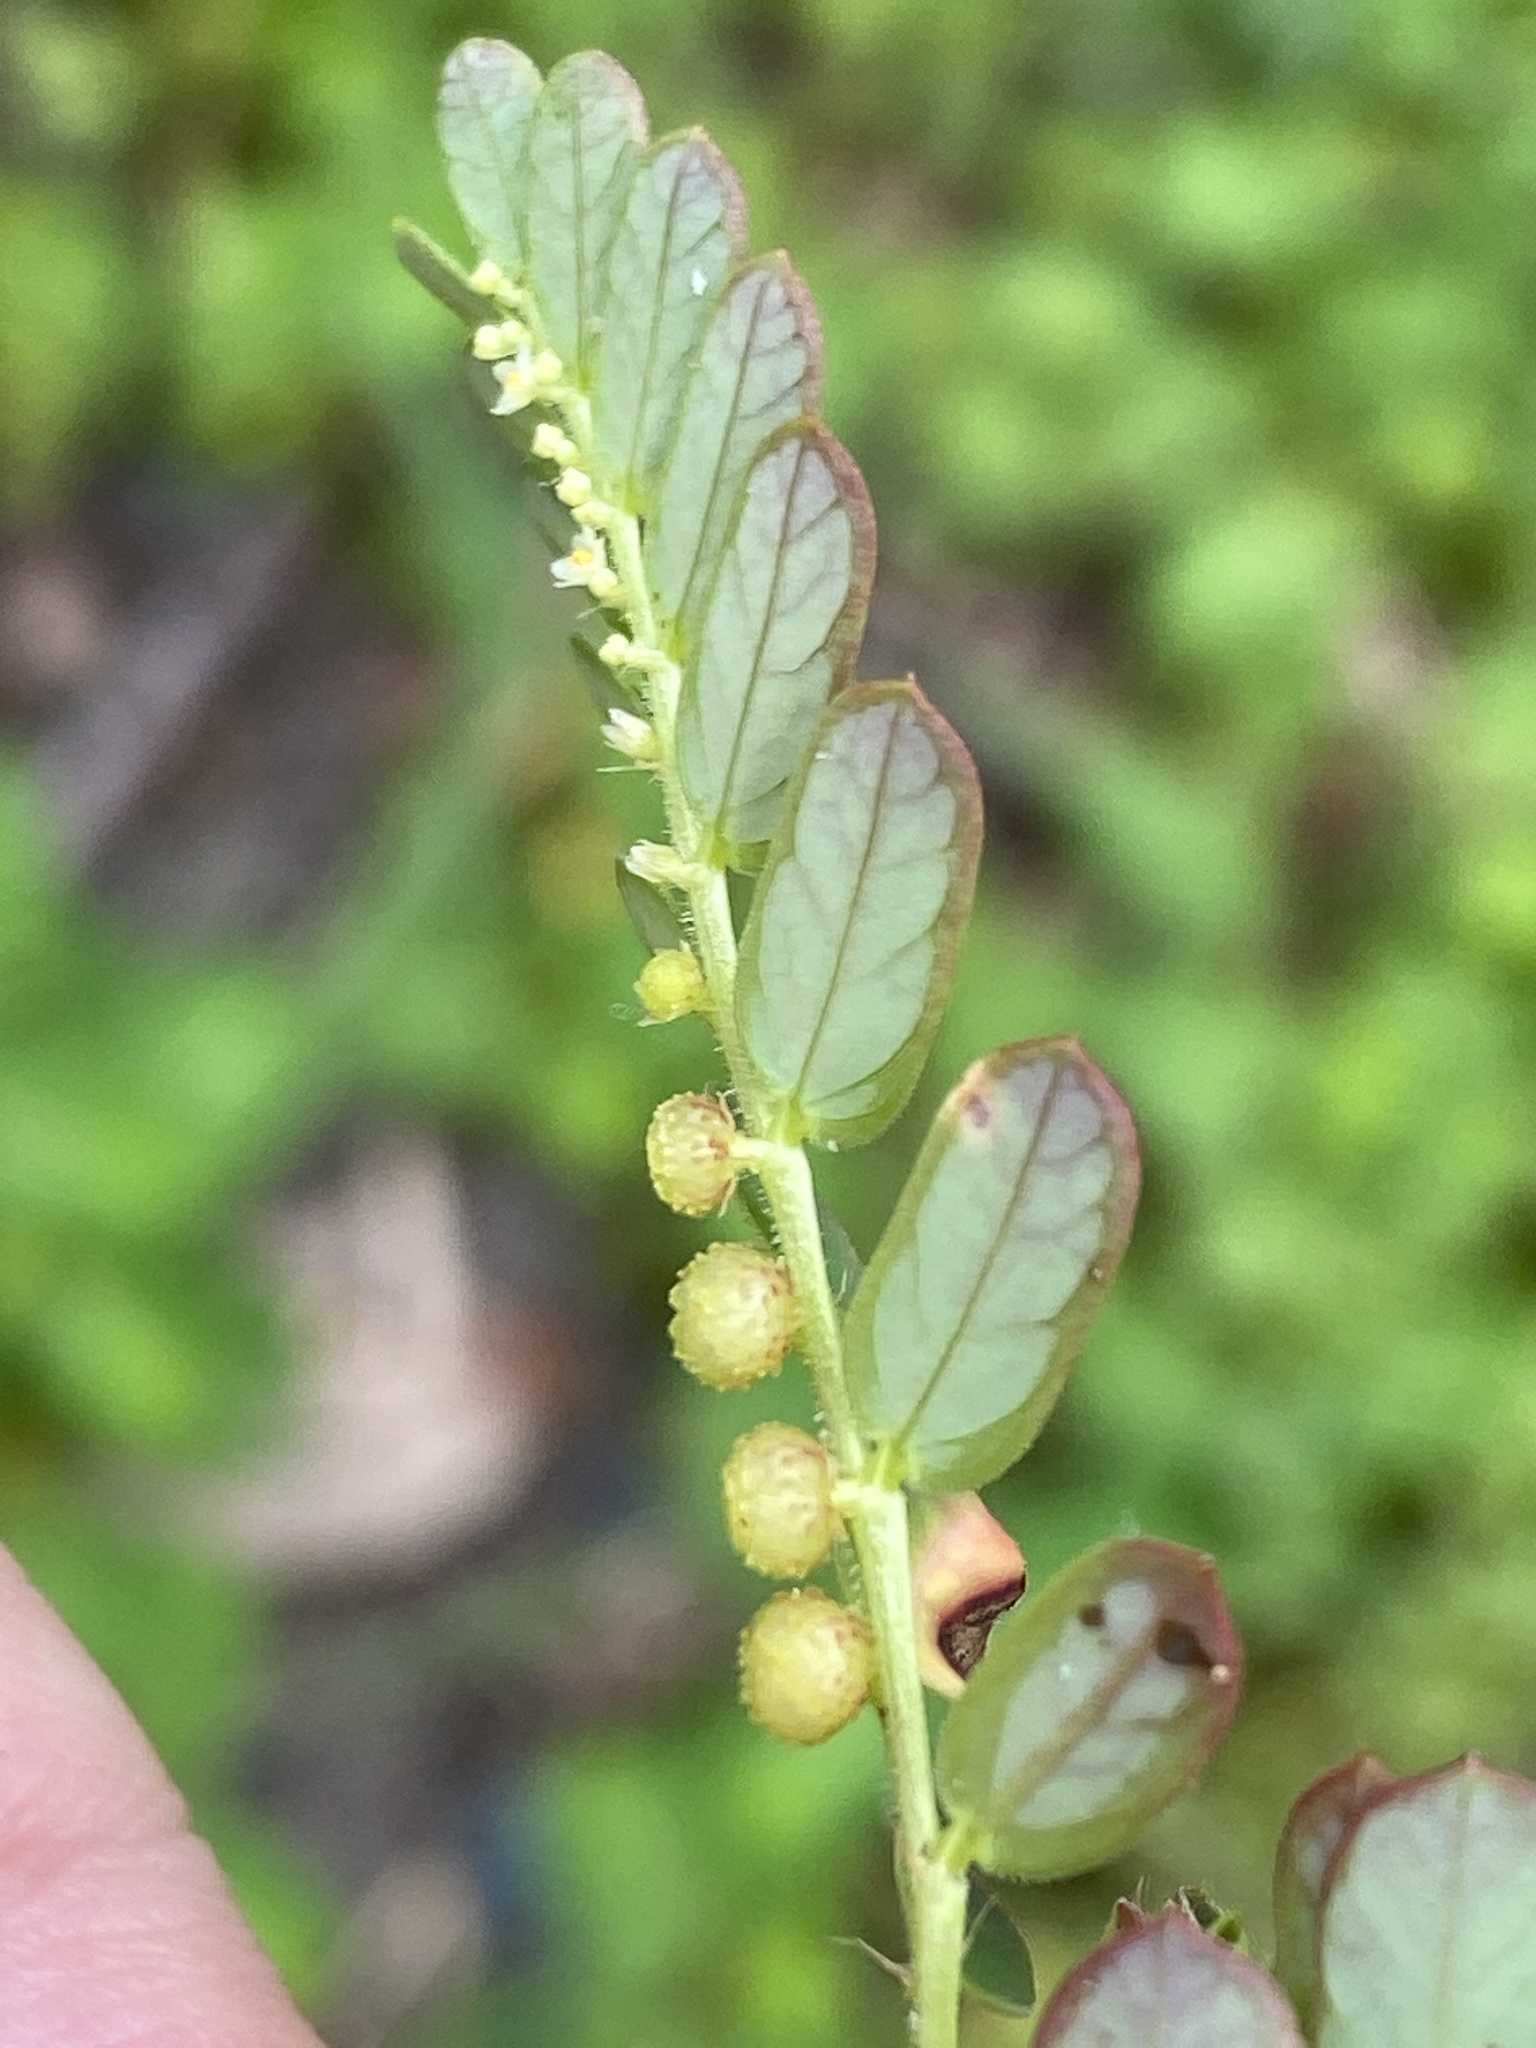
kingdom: Plantae
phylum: Tracheophyta
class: Magnoliopsida
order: Malpighiales
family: Phyllanthaceae
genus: Phyllanthus
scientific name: Phyllanthus urinaria
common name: Chamber bitter
